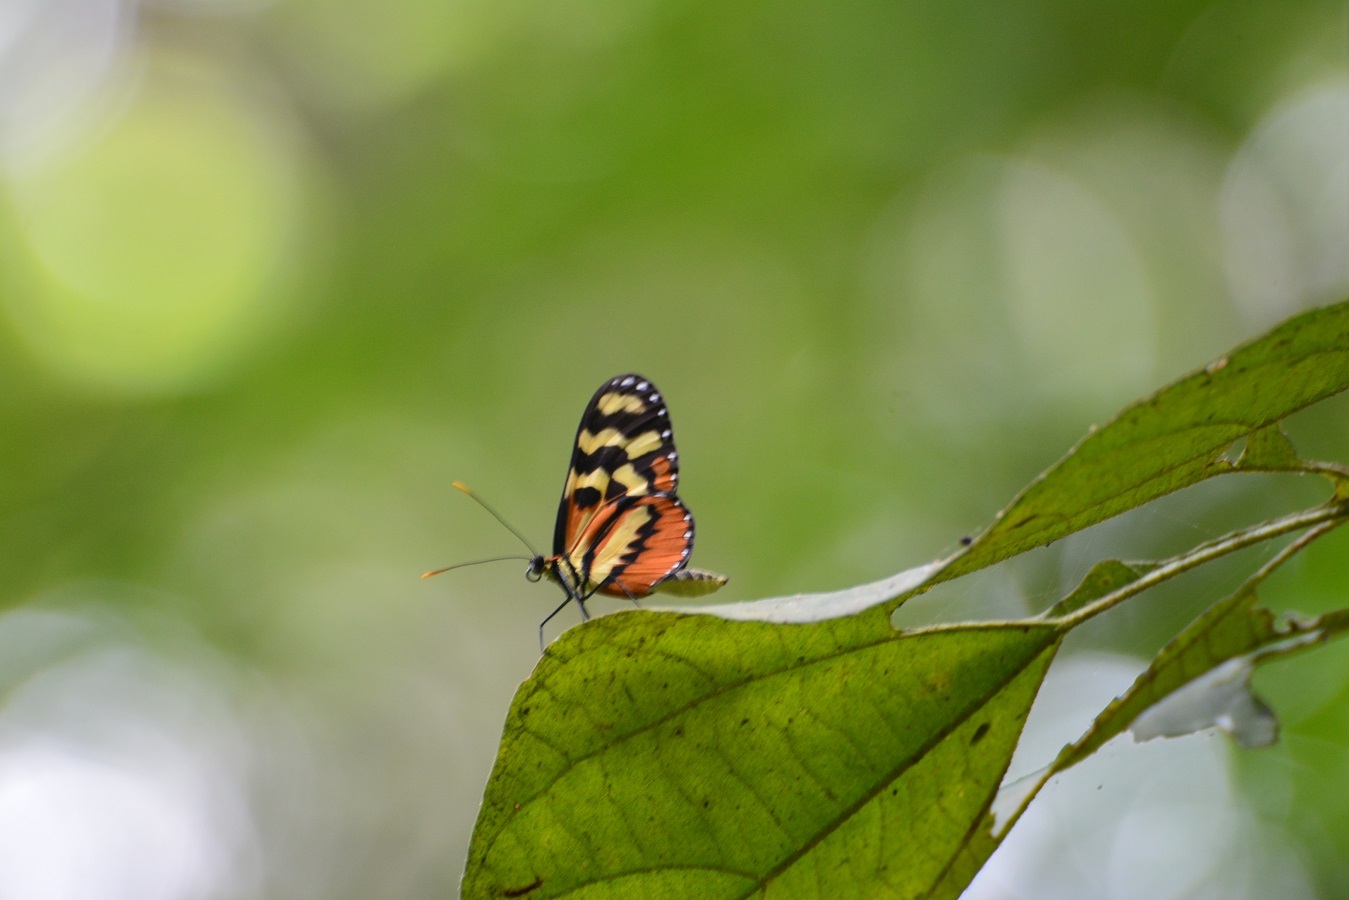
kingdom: Animalia
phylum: Arthropoda
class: Insecta
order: Lepidoptera
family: Nymphalidae
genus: Mechanitis
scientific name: Mechanitis polymnia
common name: Disturbed tigerwing
